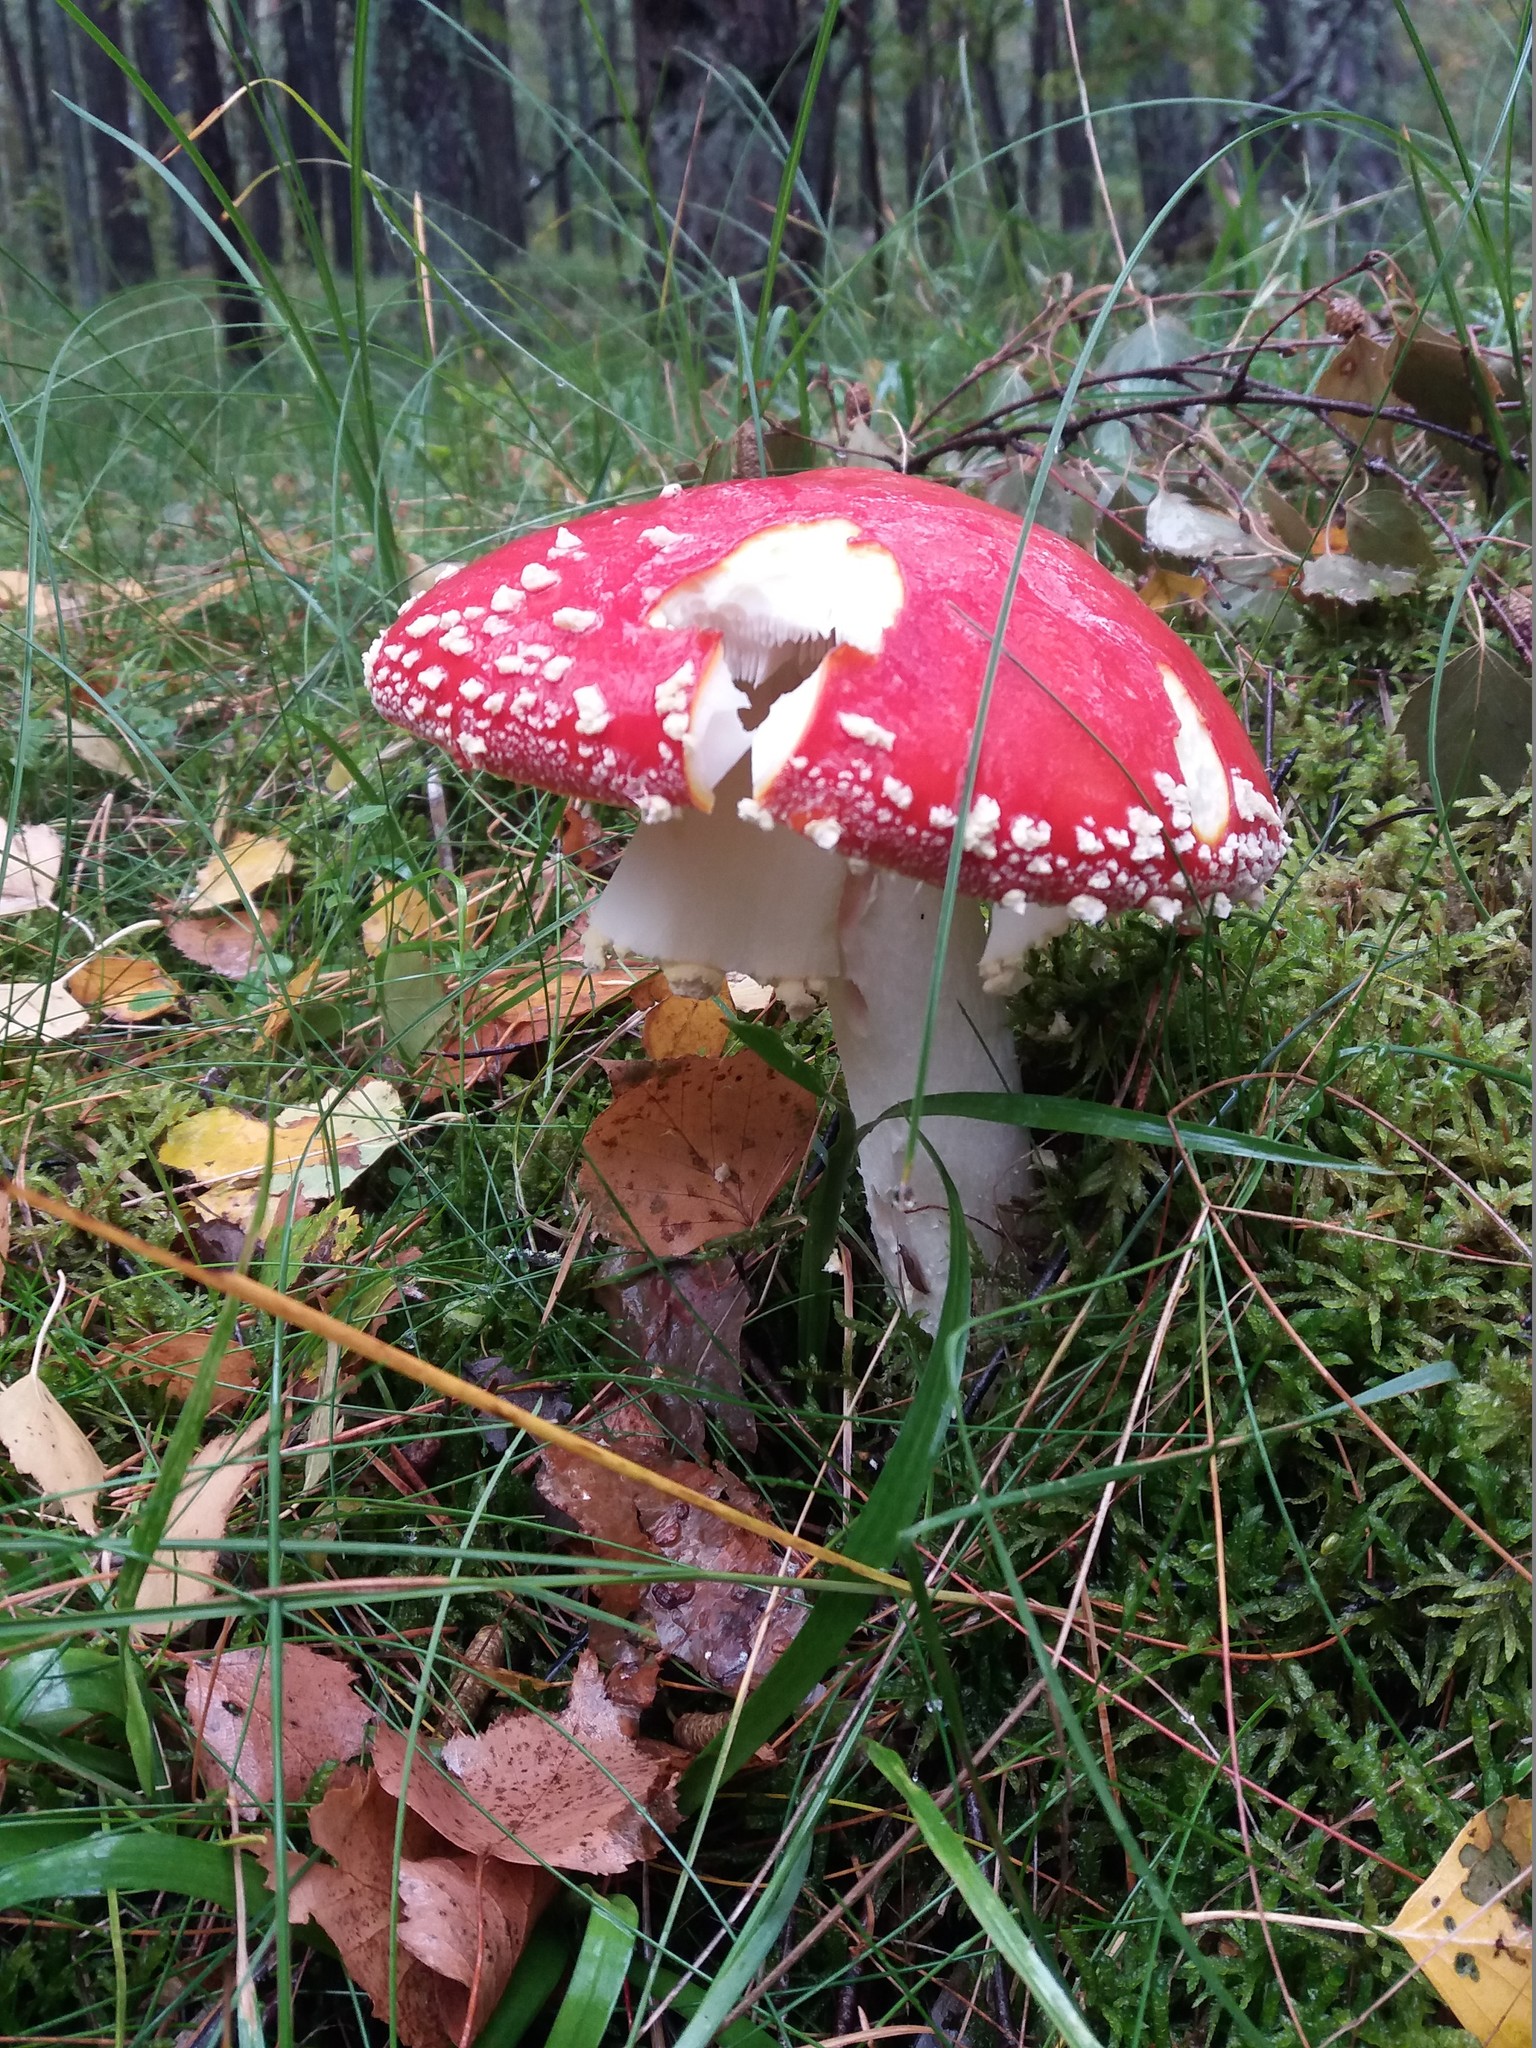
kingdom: Fungi
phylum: Basidiomycota
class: Agaricomycetes
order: Agaricales
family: Amanitaceae
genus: Amanita
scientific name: Amanita muscaria
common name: Fly agaric
